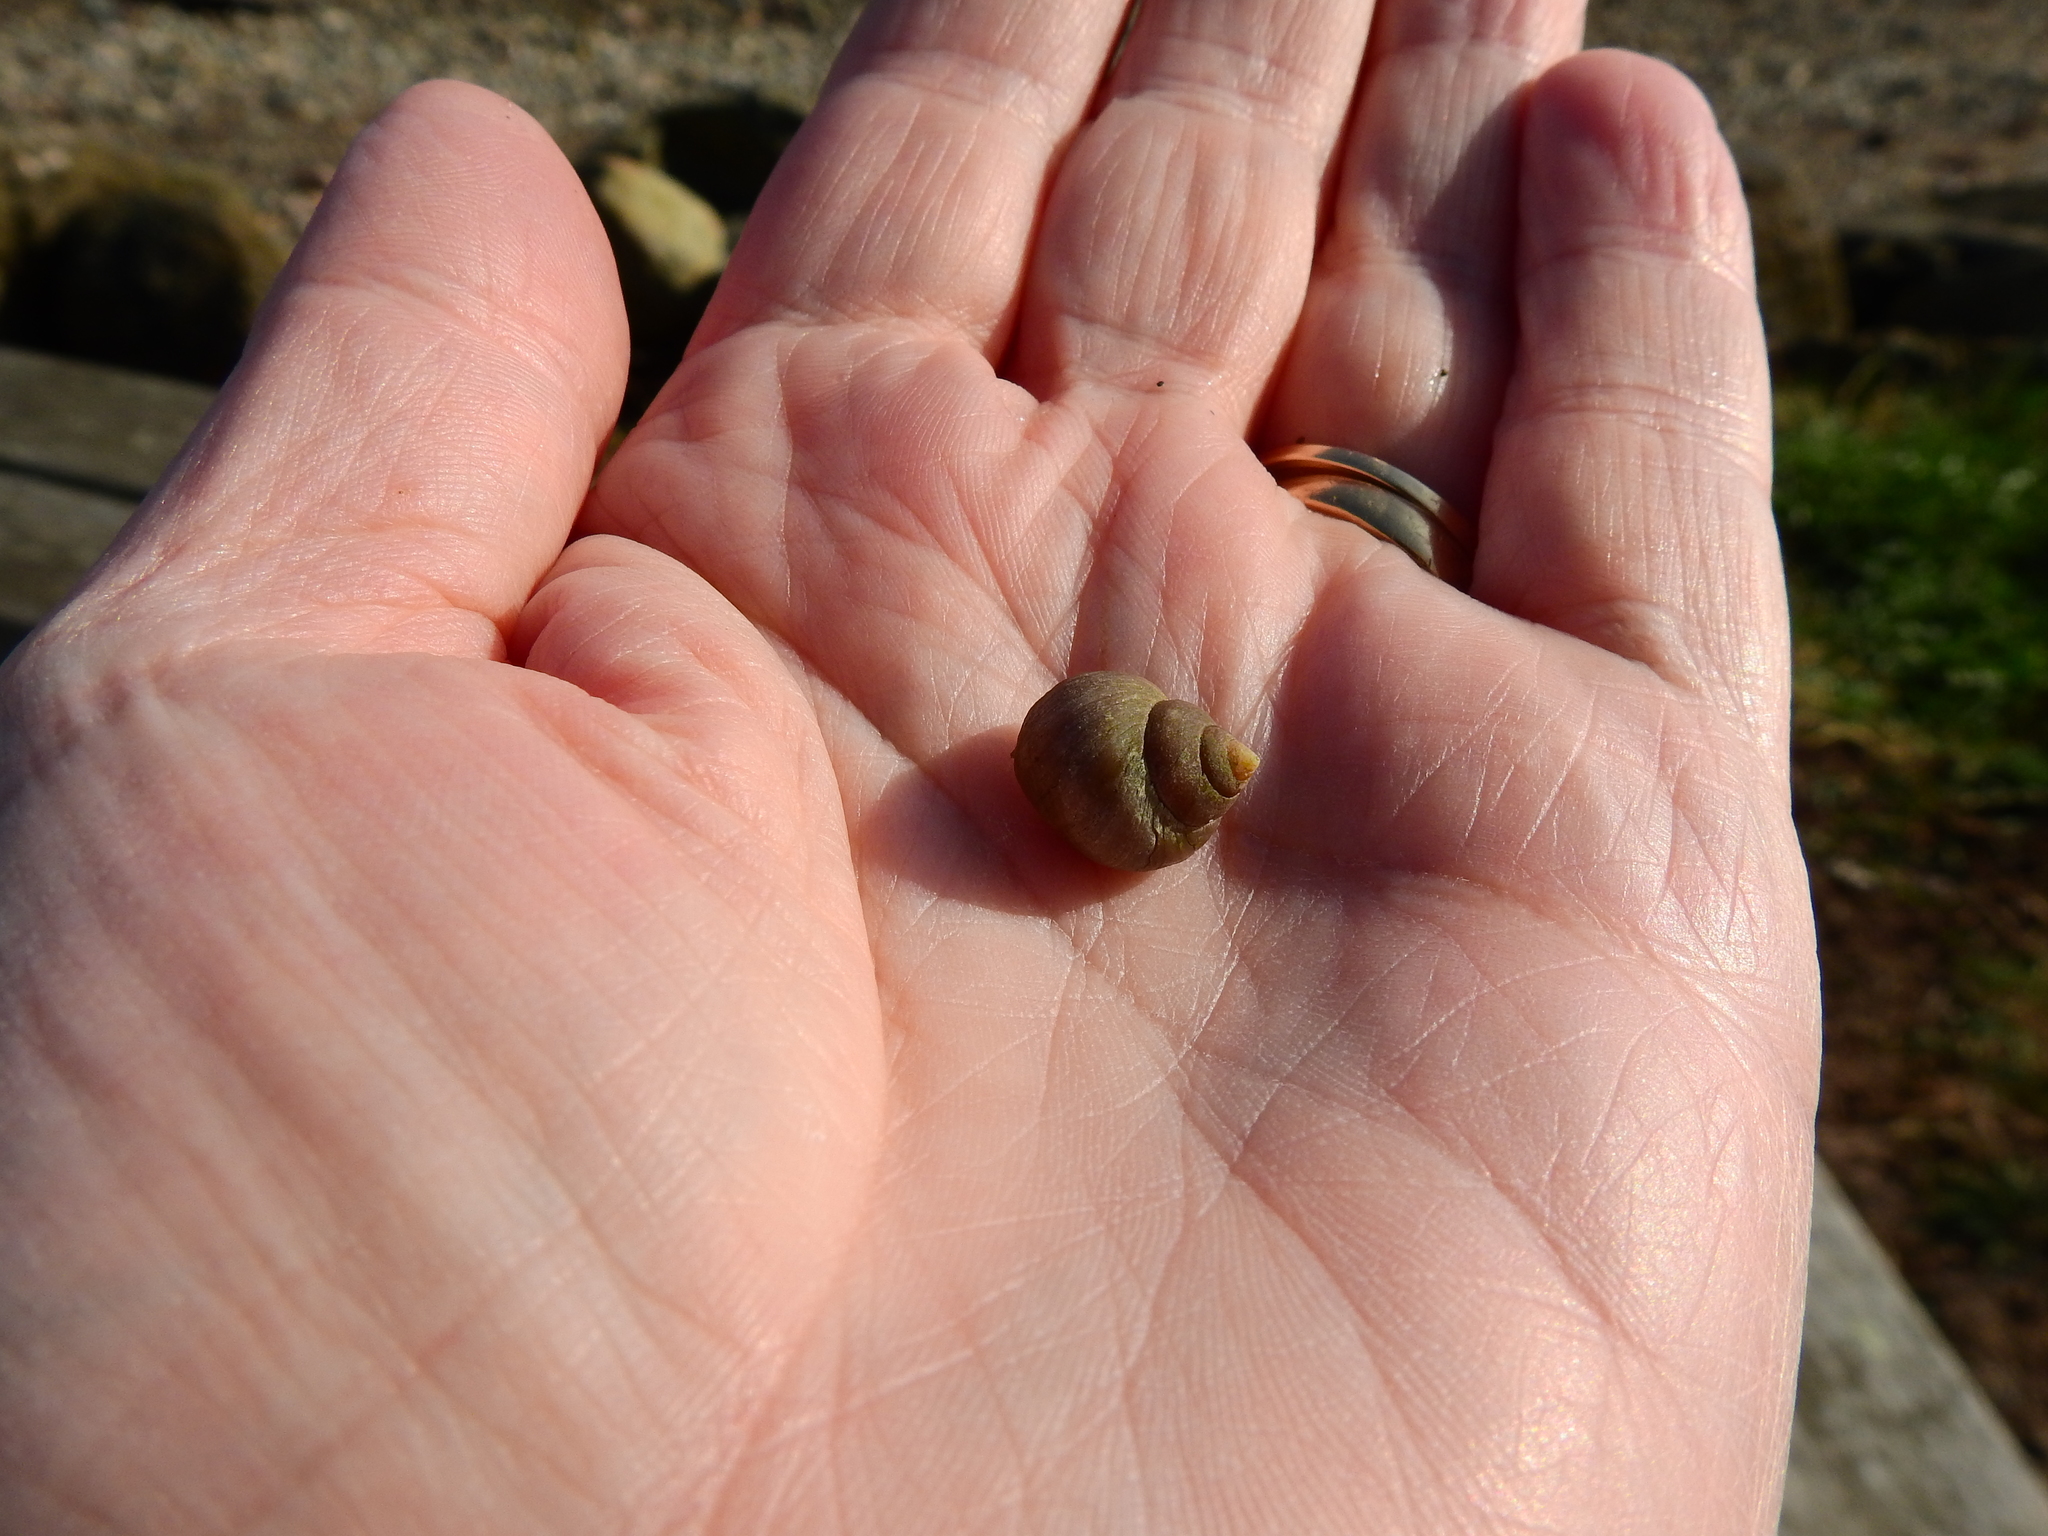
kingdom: Animalia
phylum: Mollusca
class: Gastropoda
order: Littorinimorpha
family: Littorinidae
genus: Littorina
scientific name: Littorina saxatilis
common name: Black-lined periwinkle
